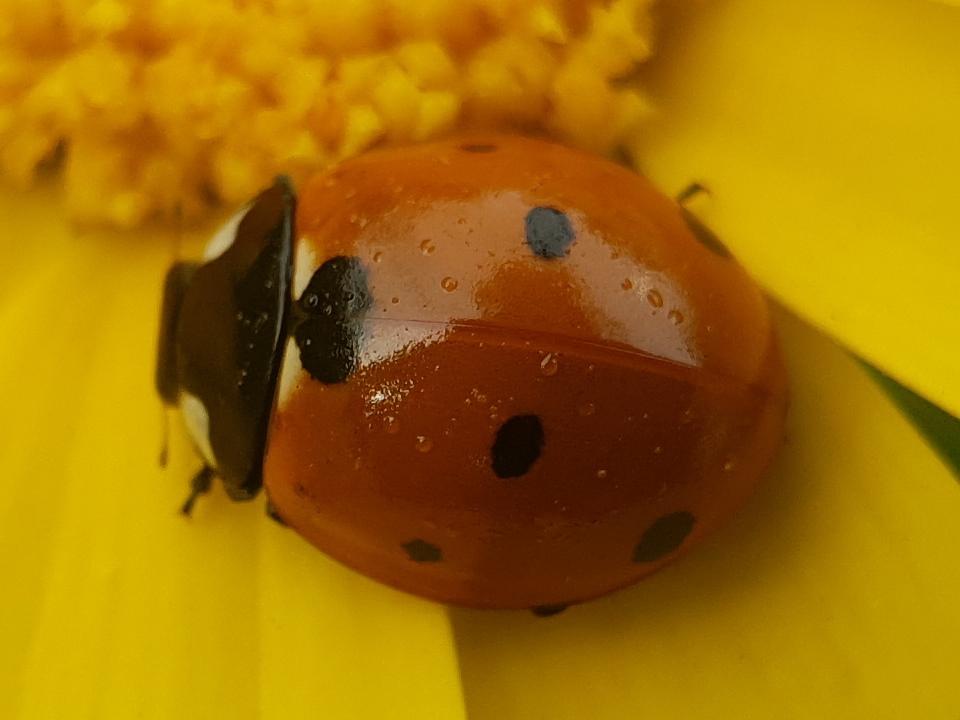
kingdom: Animalia
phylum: Arthropoda
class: Insecta
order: Coleoptera
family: Coccinellidae
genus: Coccinella
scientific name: Coccinella septempunctata
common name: Sevenspotted lady beetle
